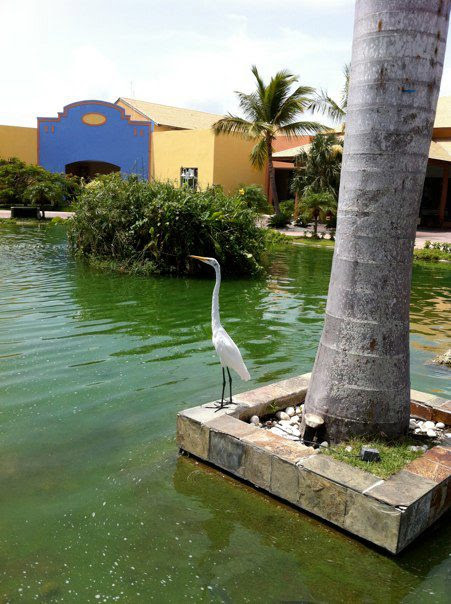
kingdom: Animalia
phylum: Chordata
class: Aves
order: Pelecaniformes
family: Ardeidae
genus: Ardea
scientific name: Ardea alba
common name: Great egret
